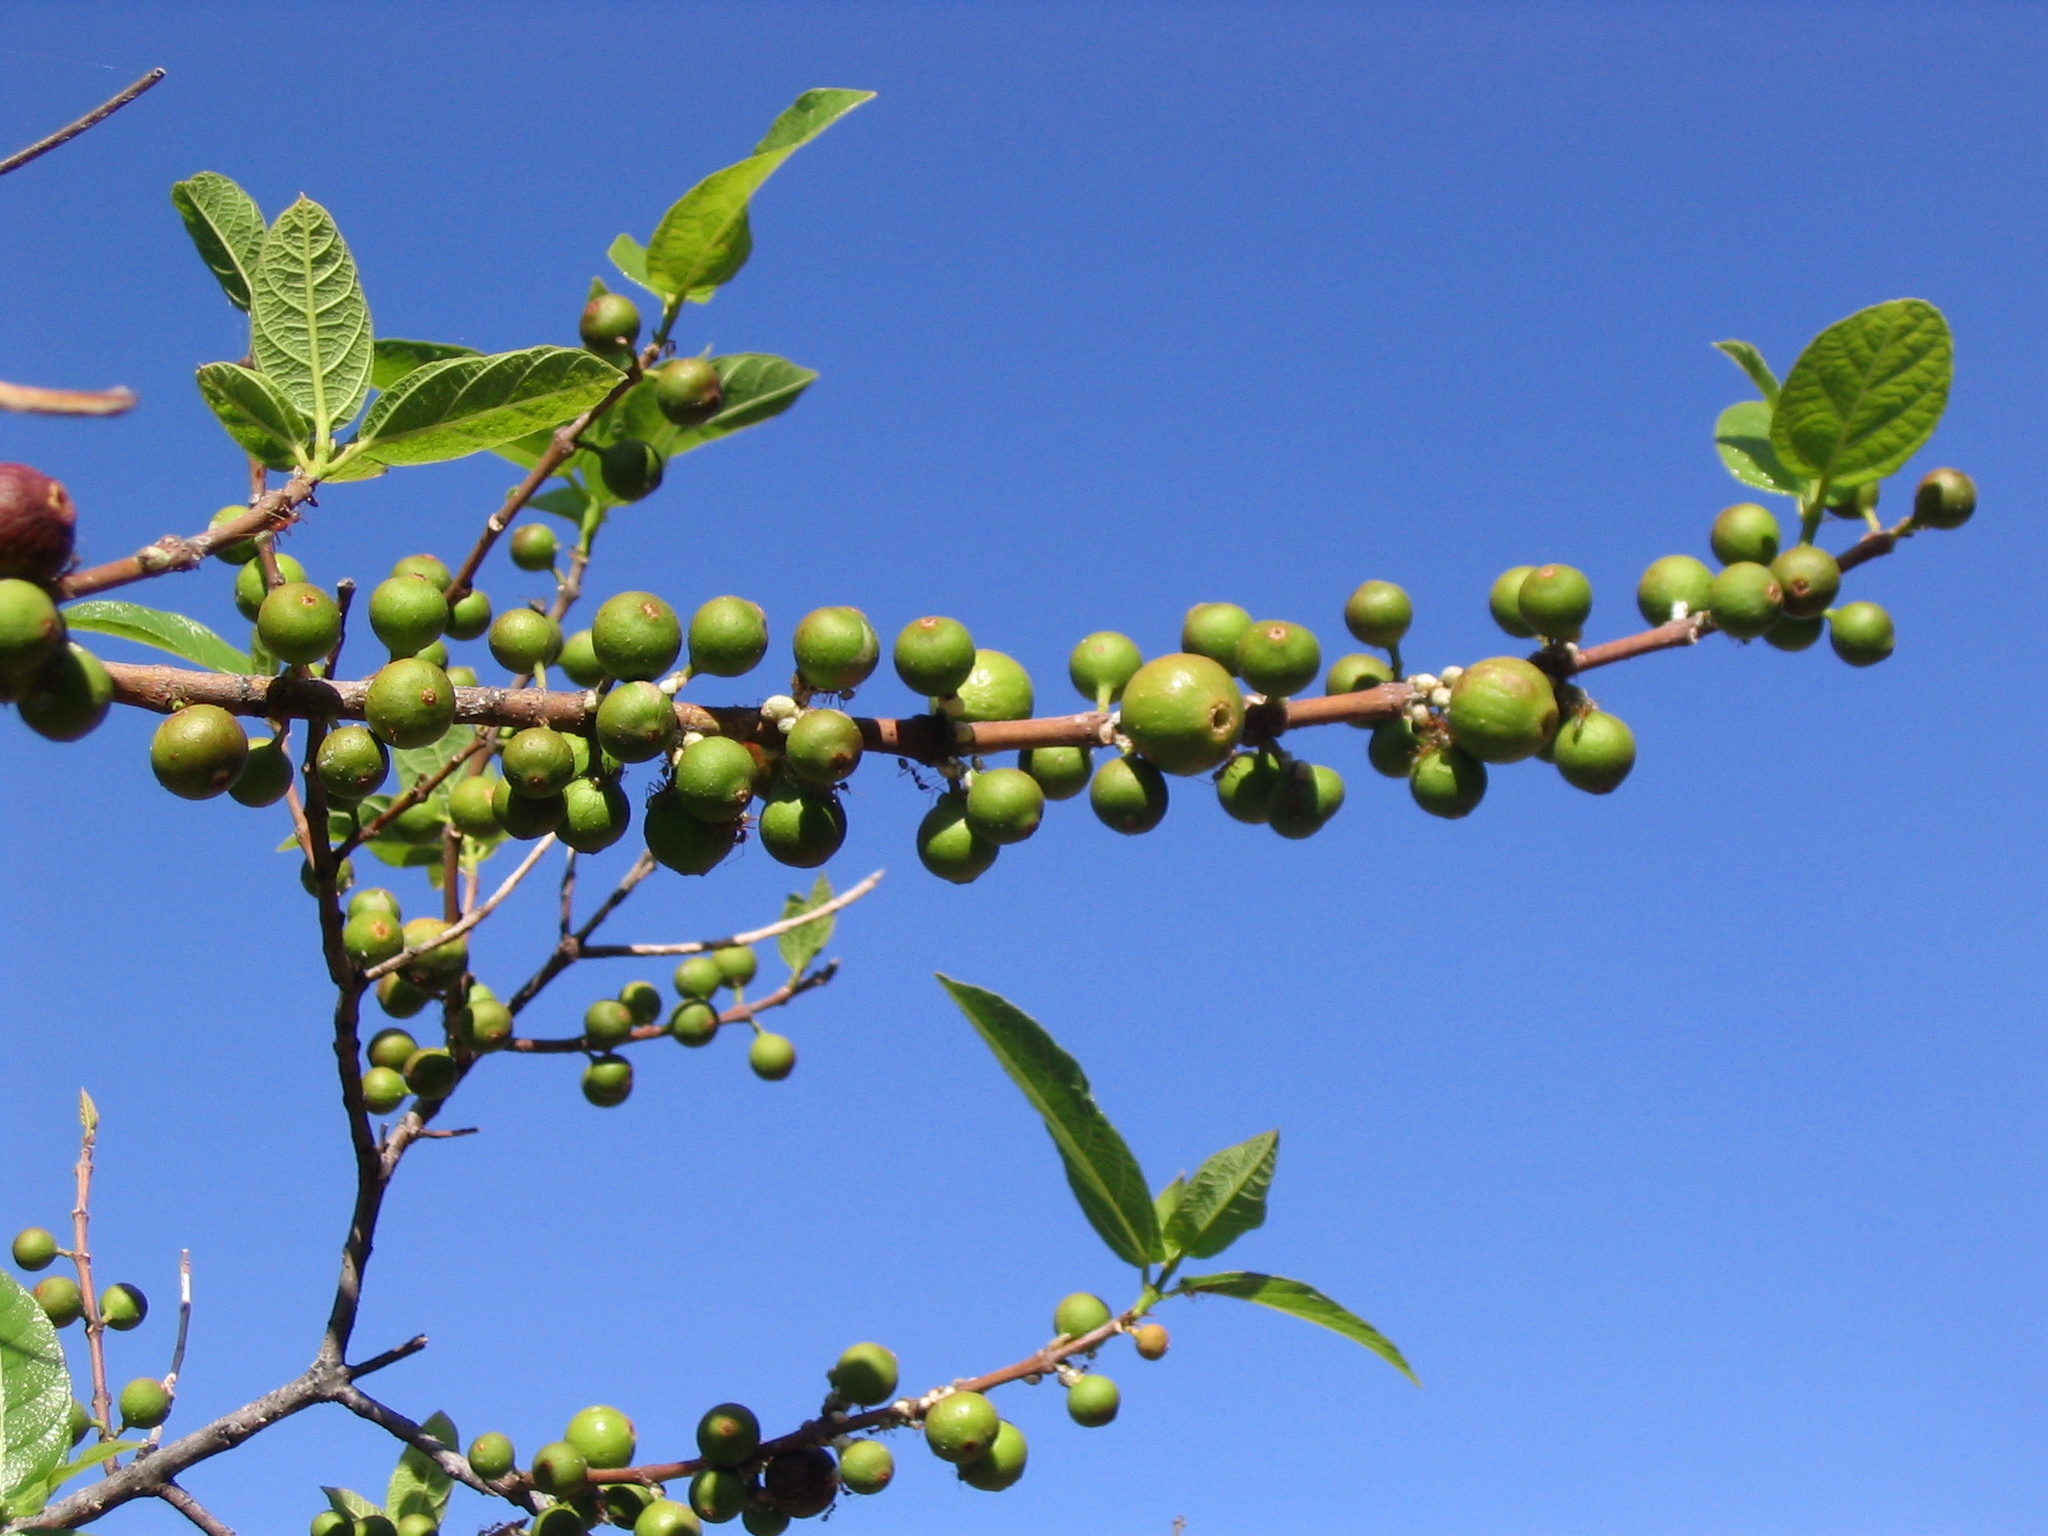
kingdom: Plantae
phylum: Tracheophyta
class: Magnoliopsida
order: Rosales
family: Moraceae
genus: Ficus
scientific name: Ficus opposita
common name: Figwood
